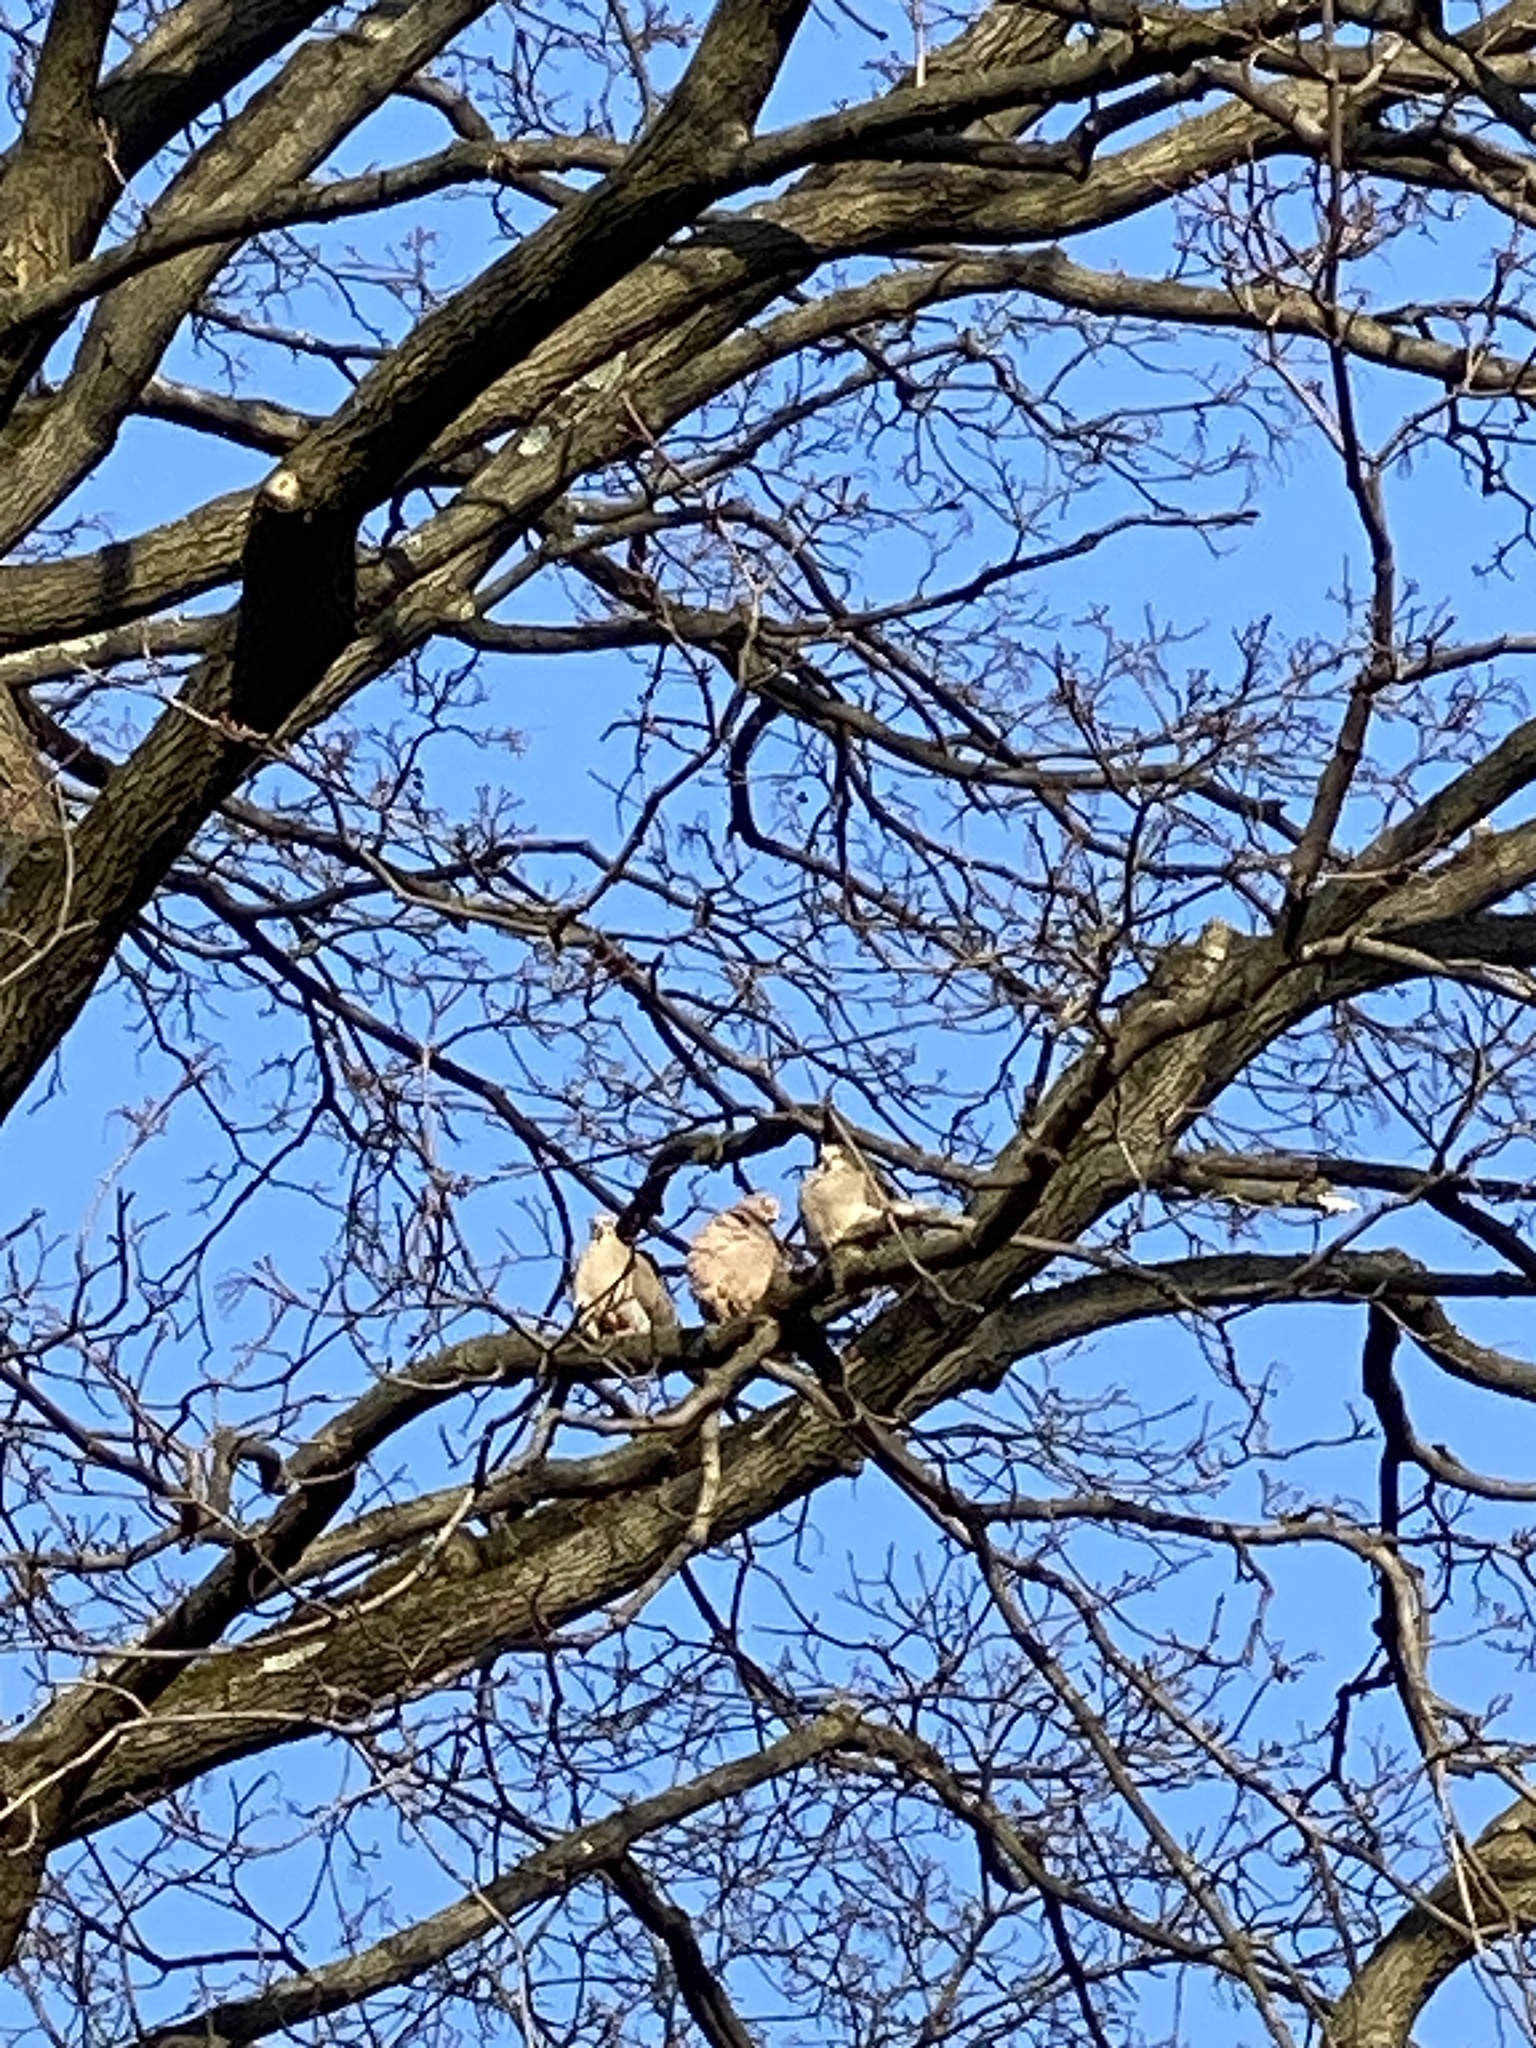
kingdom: Animalia
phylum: Chordata
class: Aves
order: Columbiformes
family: Columbidae
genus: Zenaida
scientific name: Zenaida macroura
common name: Mourning dove
